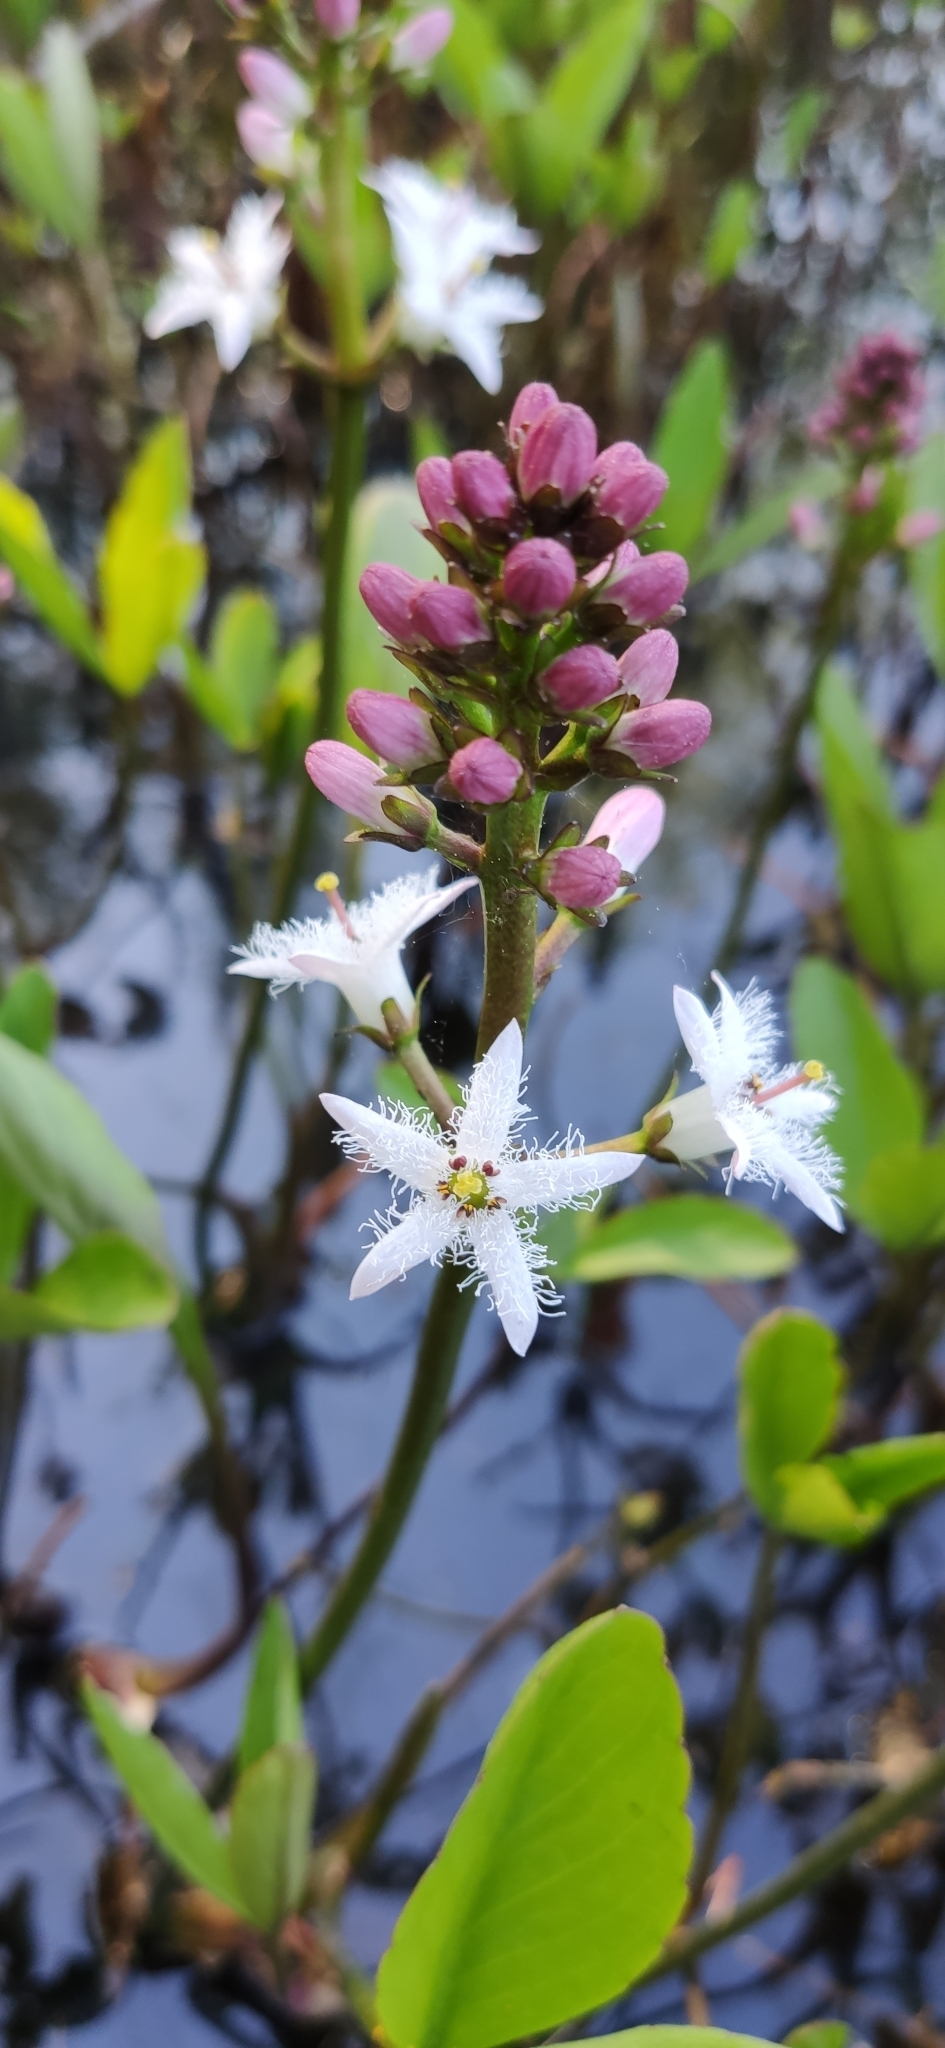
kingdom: Plantae
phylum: Tracheophyta
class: Magnoliopsida
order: Asterales
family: Menyanthaceae
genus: Menyanthes
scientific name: Menyanthes trifoliata
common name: Bogbean
